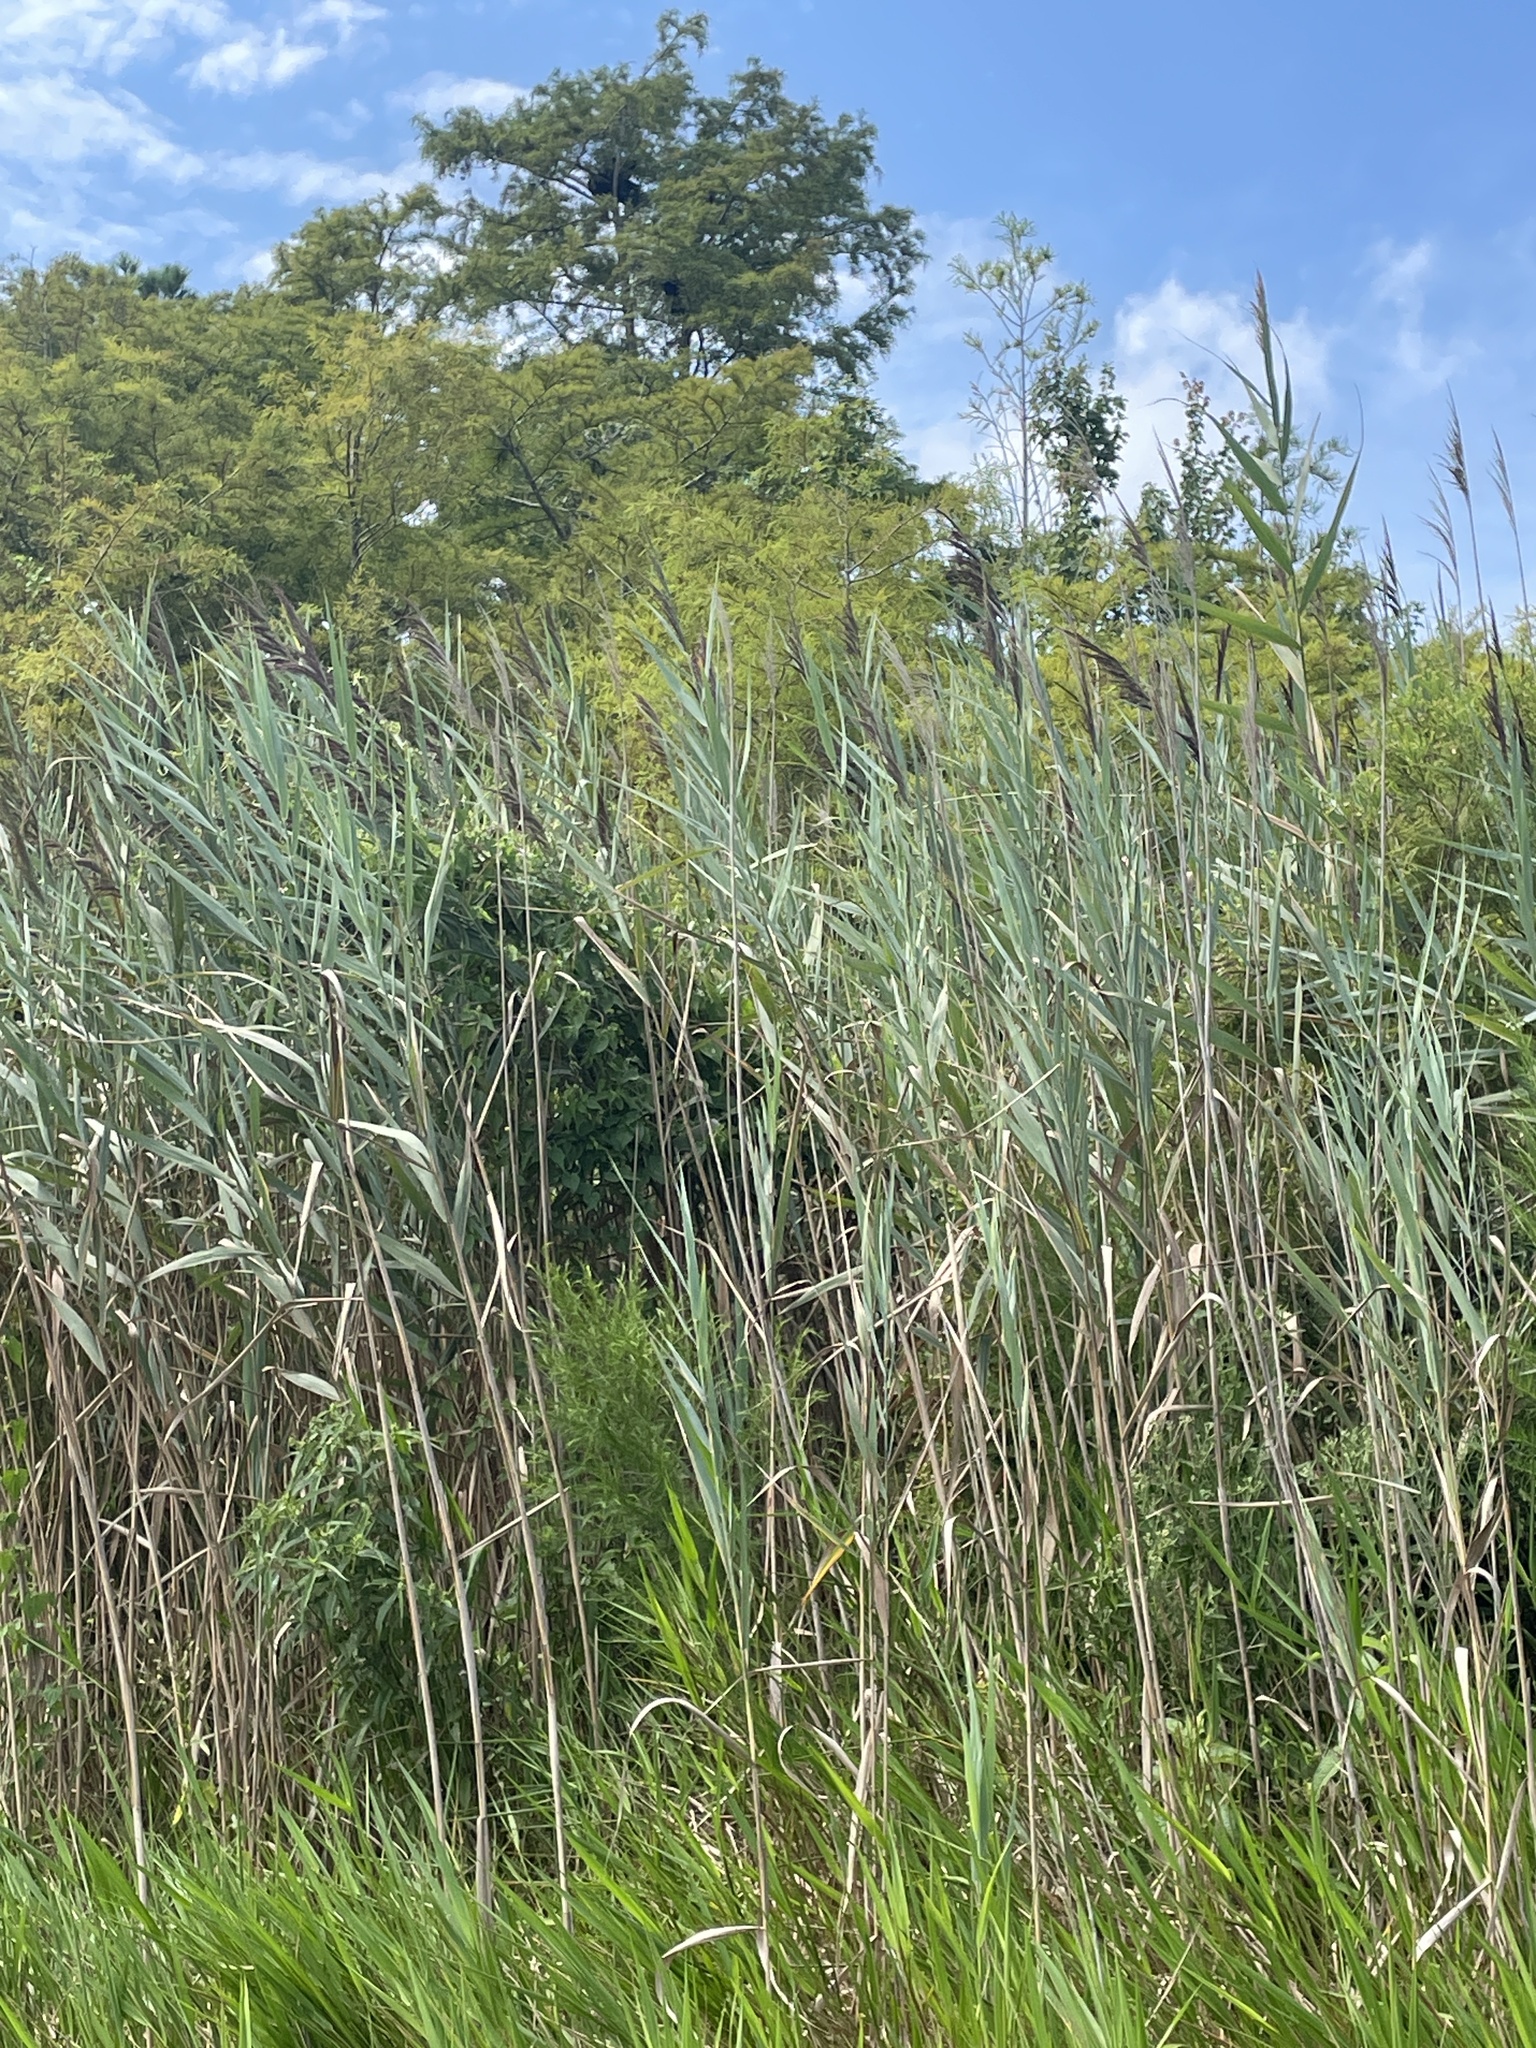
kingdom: Plantae
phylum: Tracheophyta
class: Liliopsida
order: Poales
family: Poaceae
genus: Phragmites
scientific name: Phragmites australis
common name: Common reed
